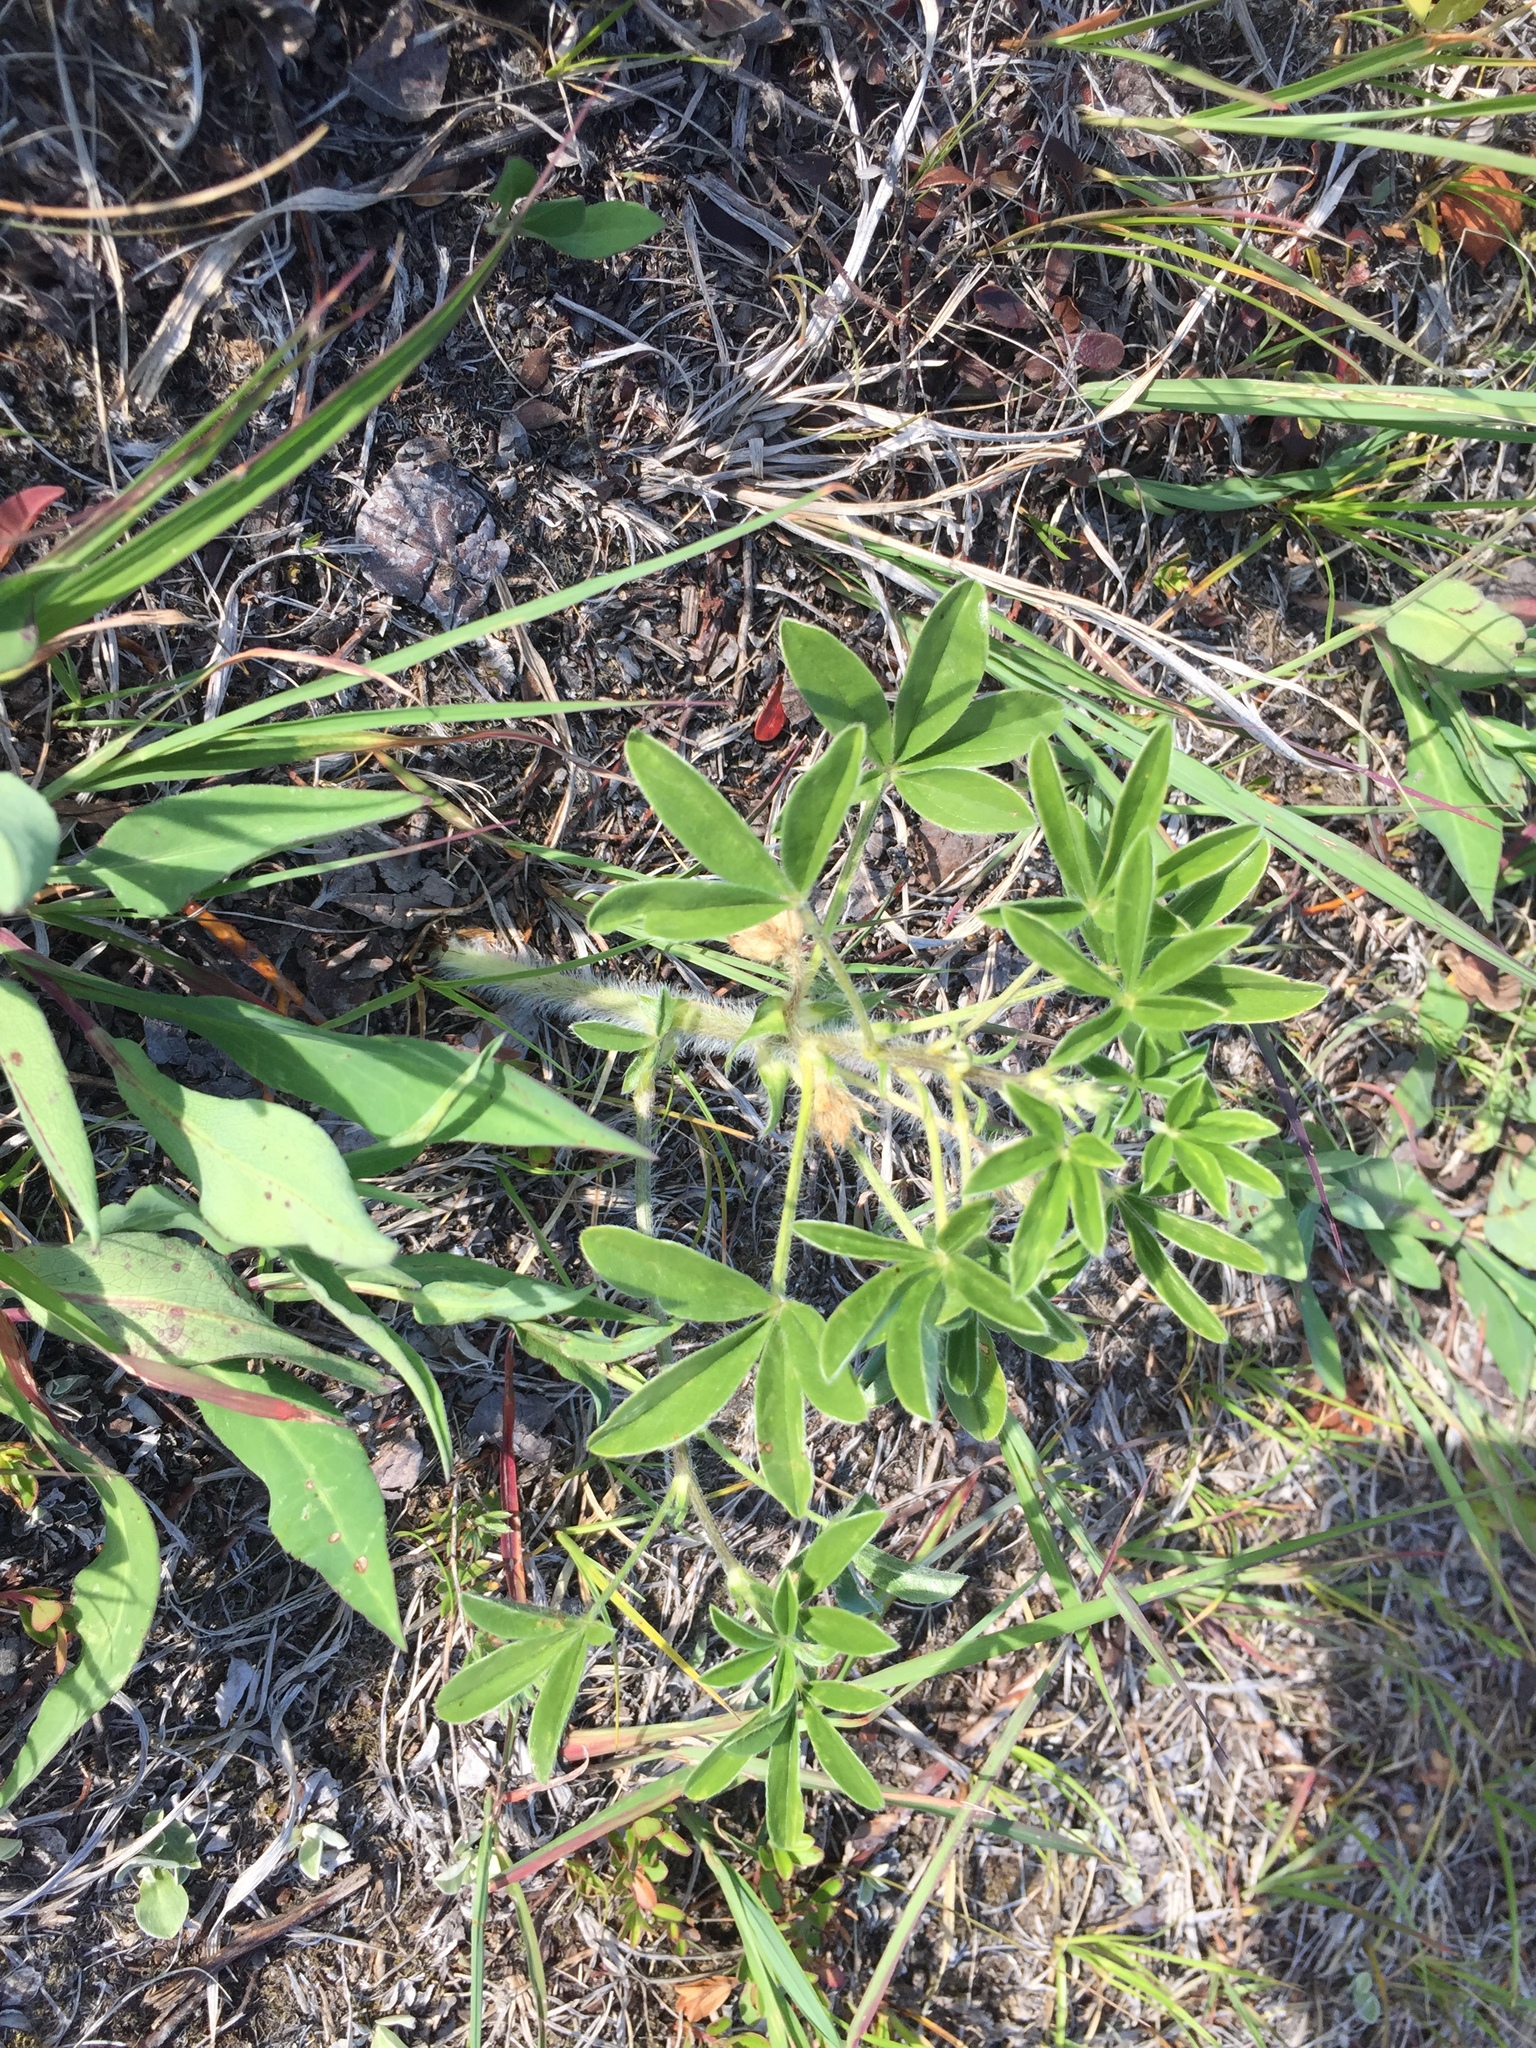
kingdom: Plantae
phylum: Tracheophyta
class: Magnoliopsida
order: Fabales
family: Fabaceae
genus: Pediomelum
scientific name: Pediomelum esculentum
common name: Indian-turnip
